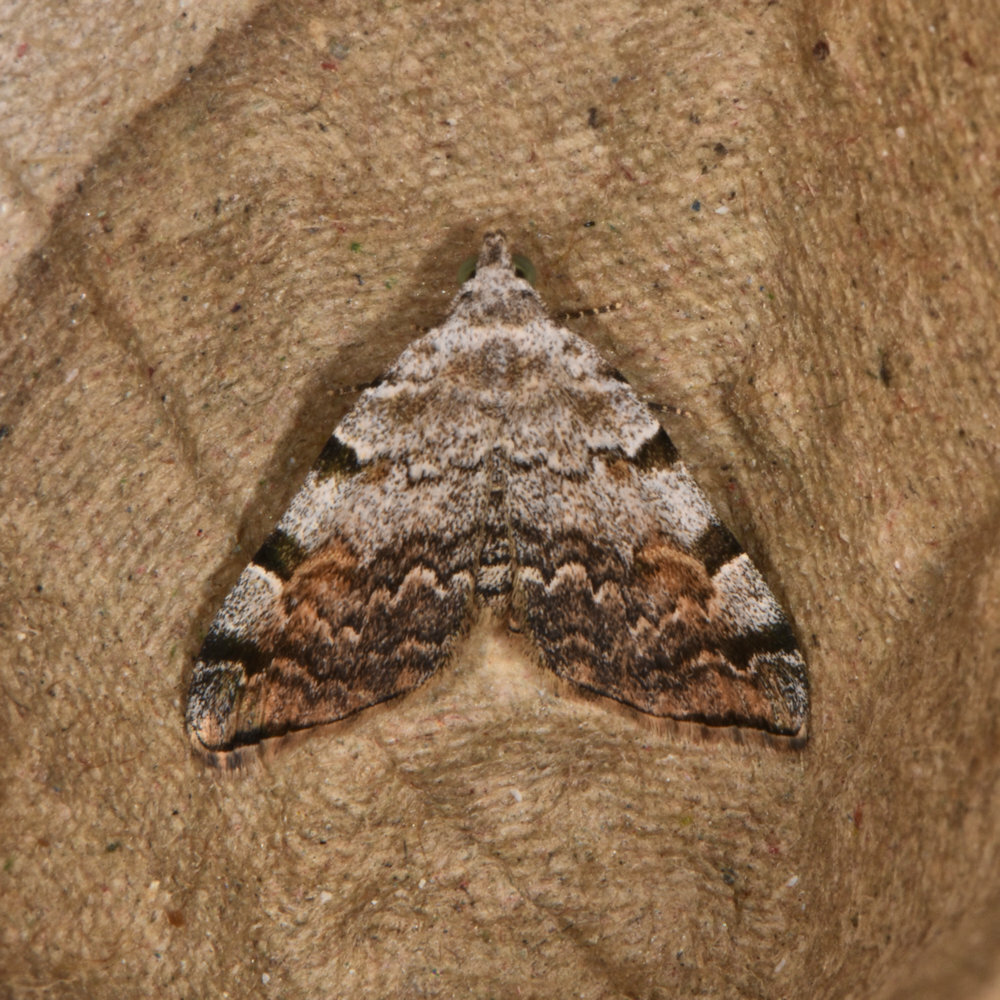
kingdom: Animalia
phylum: Arthropoda
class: Insecta
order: Lepidoptera
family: Erebidae
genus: Idia
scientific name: Idia americalis
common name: American idia moth
